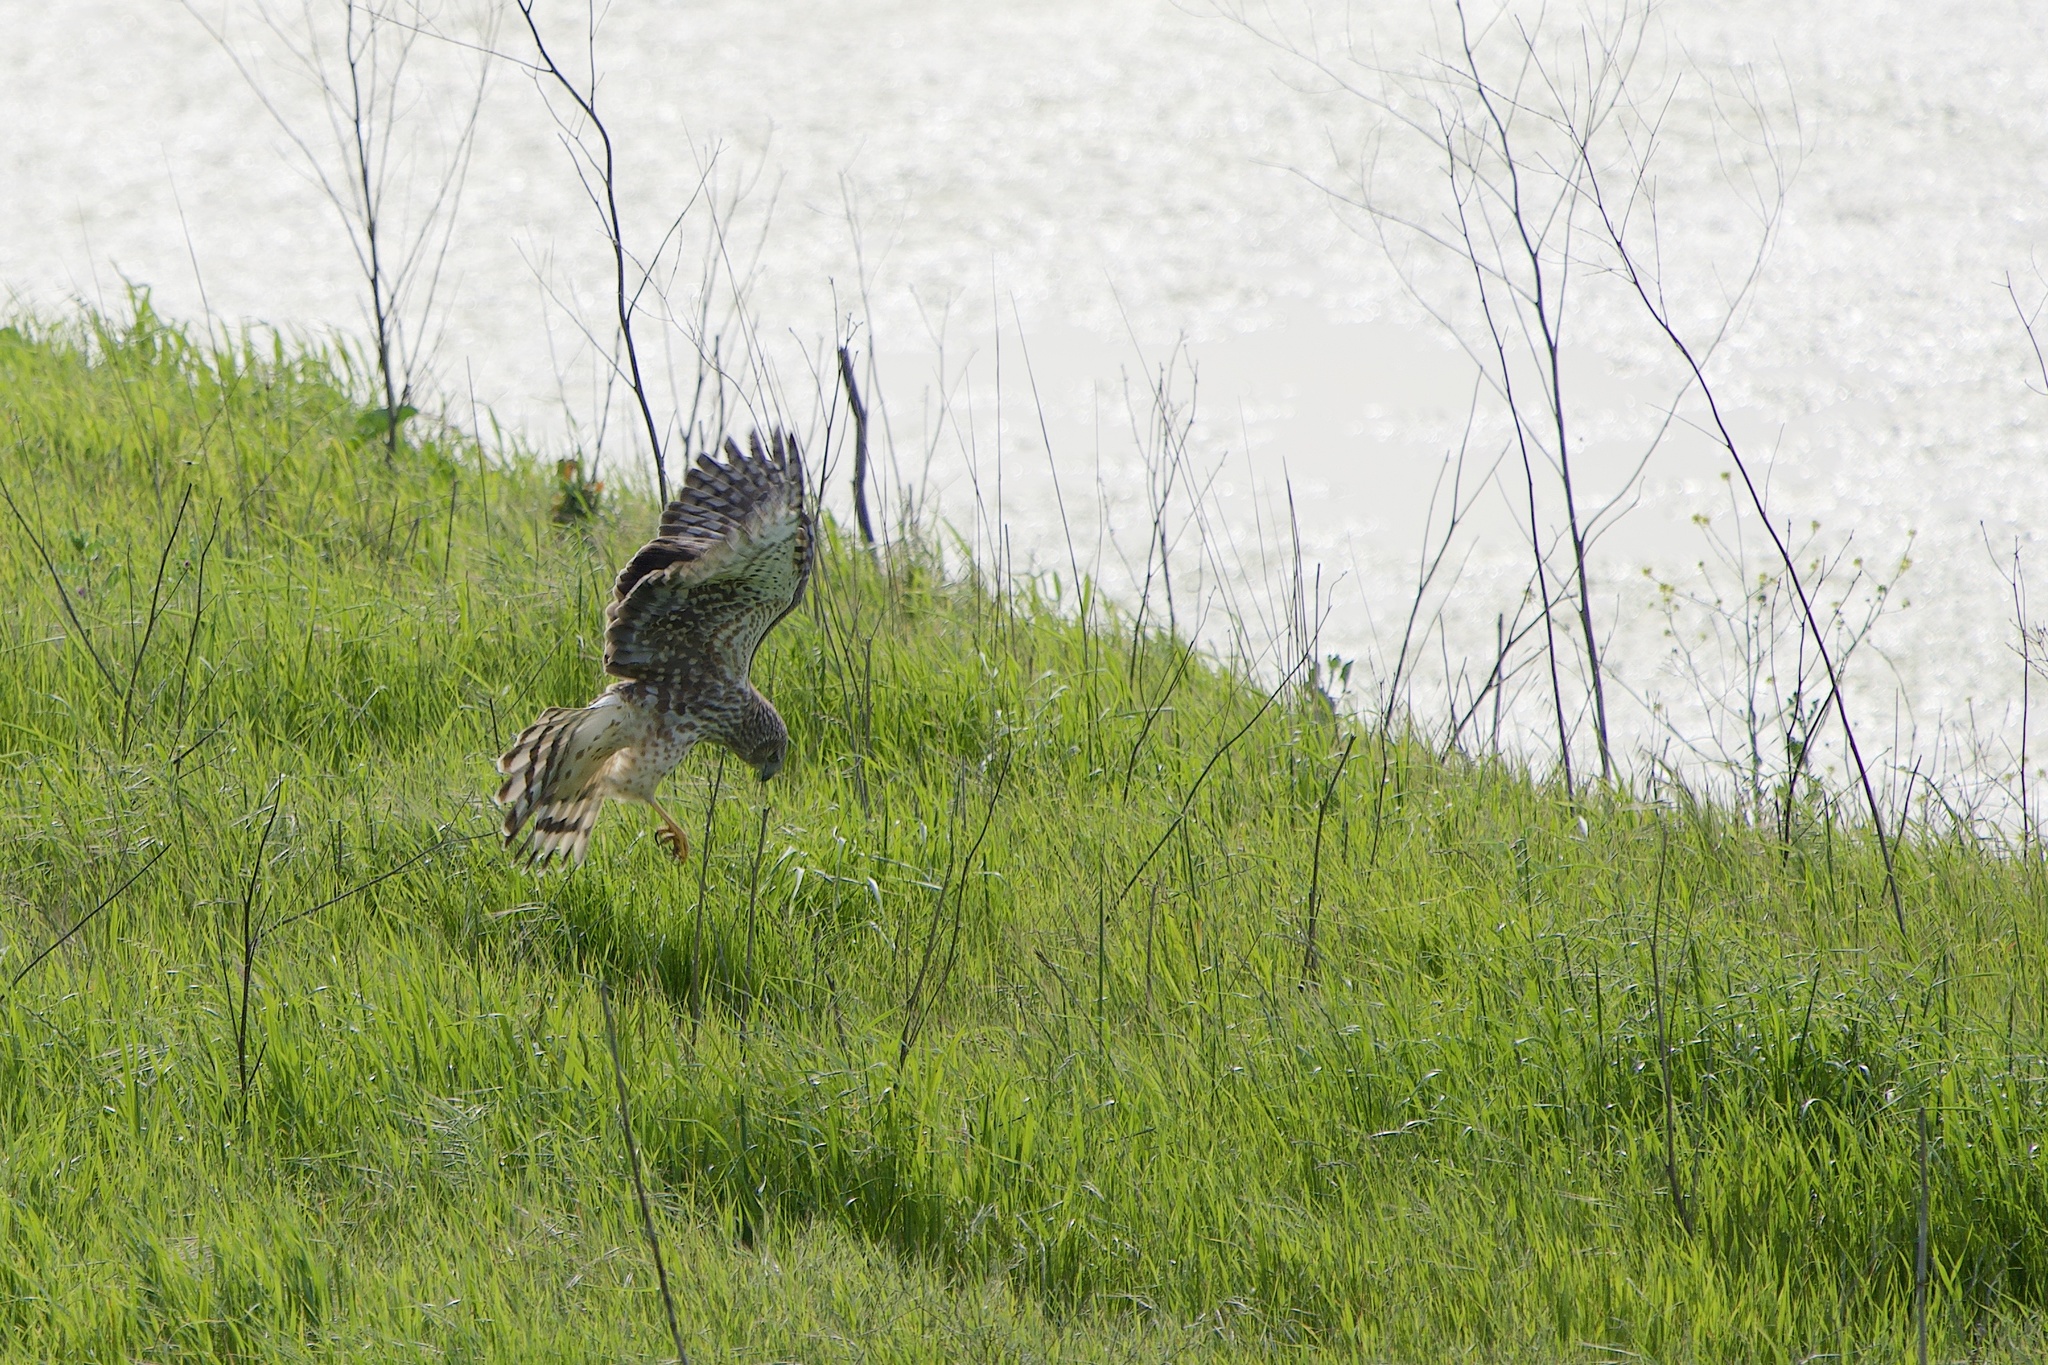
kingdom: Animalia
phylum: Chordata
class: Aves
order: Accipitriformes
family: Accipitridae
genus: Circus
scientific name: Circus cyaneus
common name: Hen harrier
